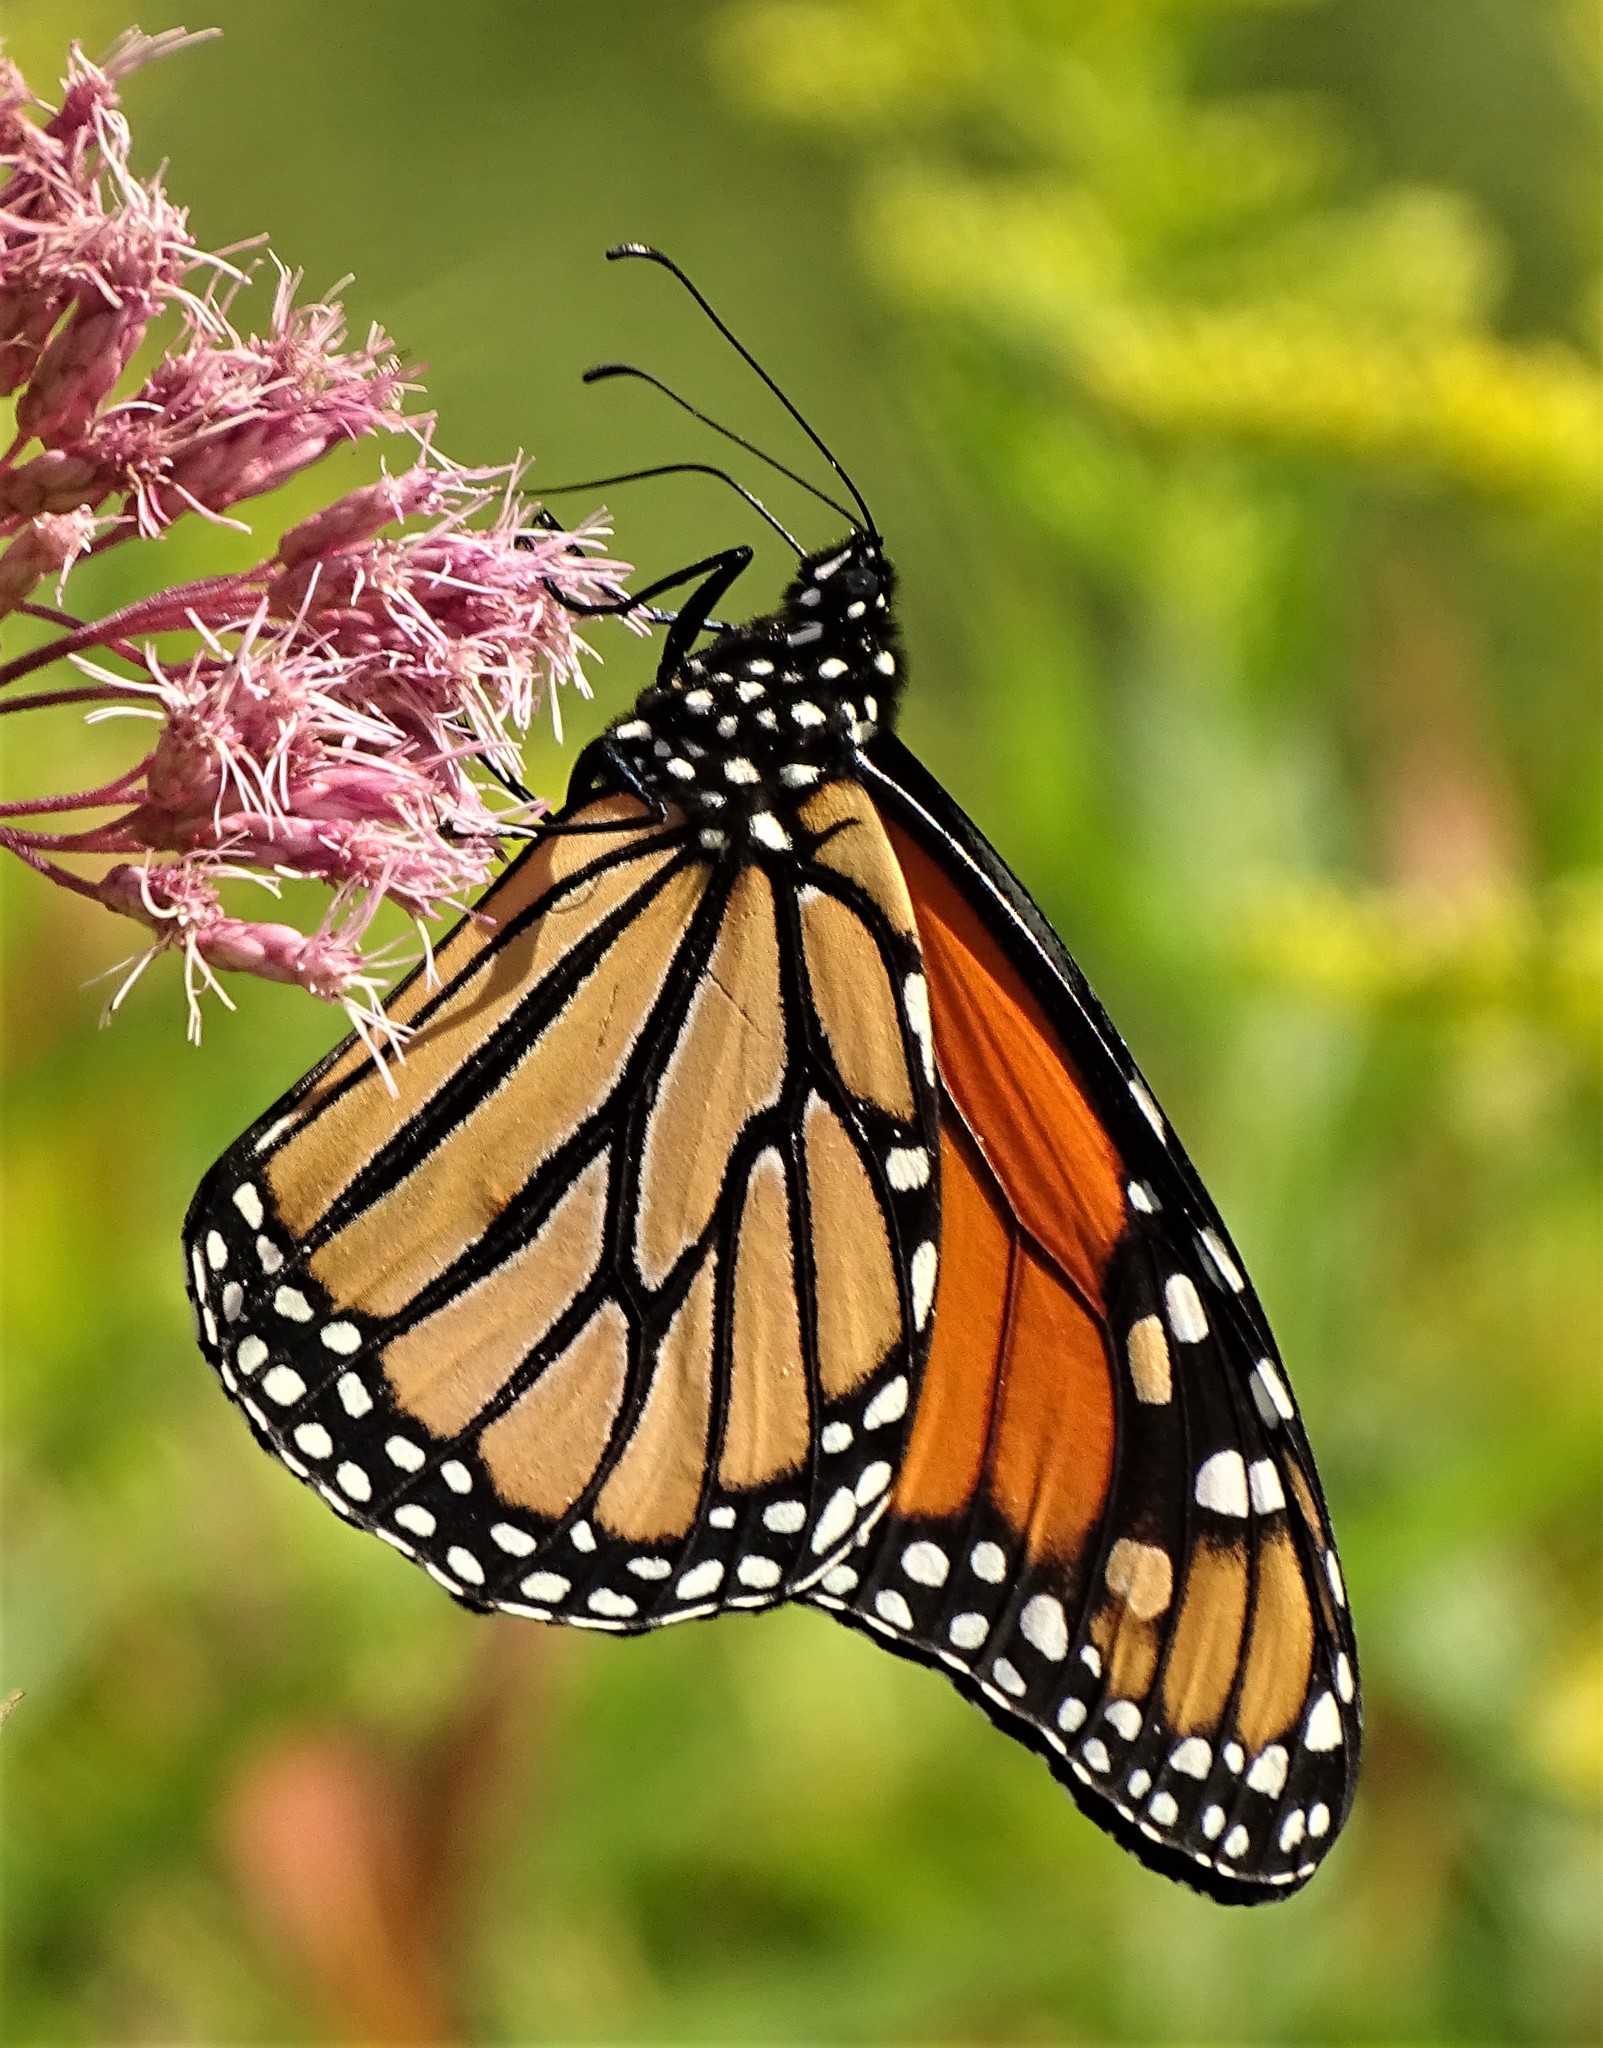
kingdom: Animalia
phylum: Arthropoda
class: Insecta
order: Lepidoptera
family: Nymphalidae
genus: Danaus
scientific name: Danaus plexippus
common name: Monarch
